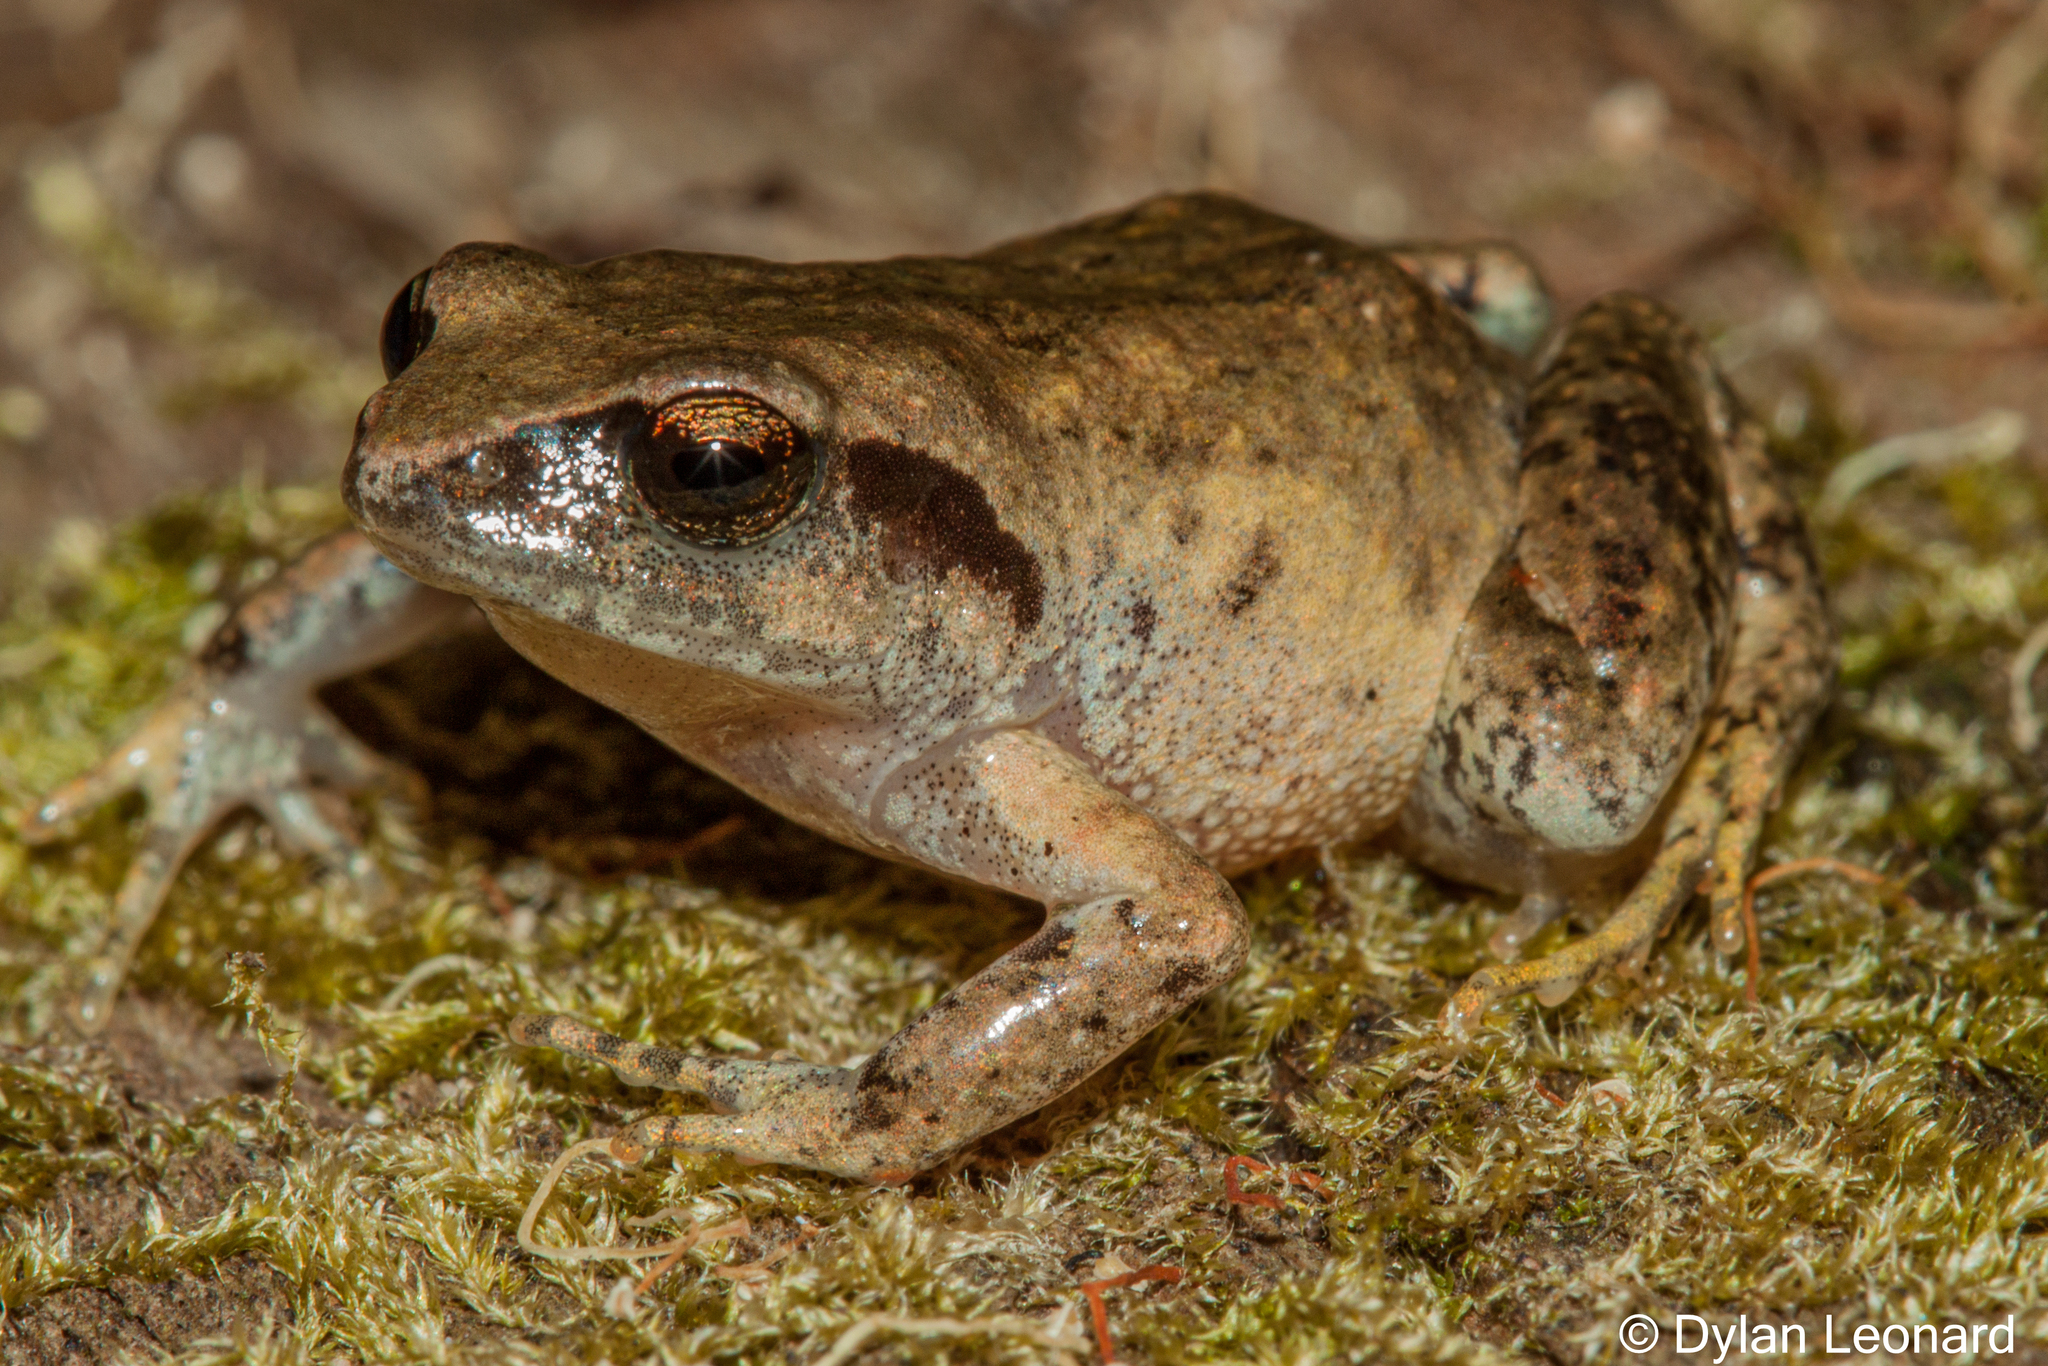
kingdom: Animalia
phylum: Chordata
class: Amphibia
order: Anura
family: Arthroleptidae
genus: Arthroleptis
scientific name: Arthroleptis wahlbergii
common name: Bush squeaker
